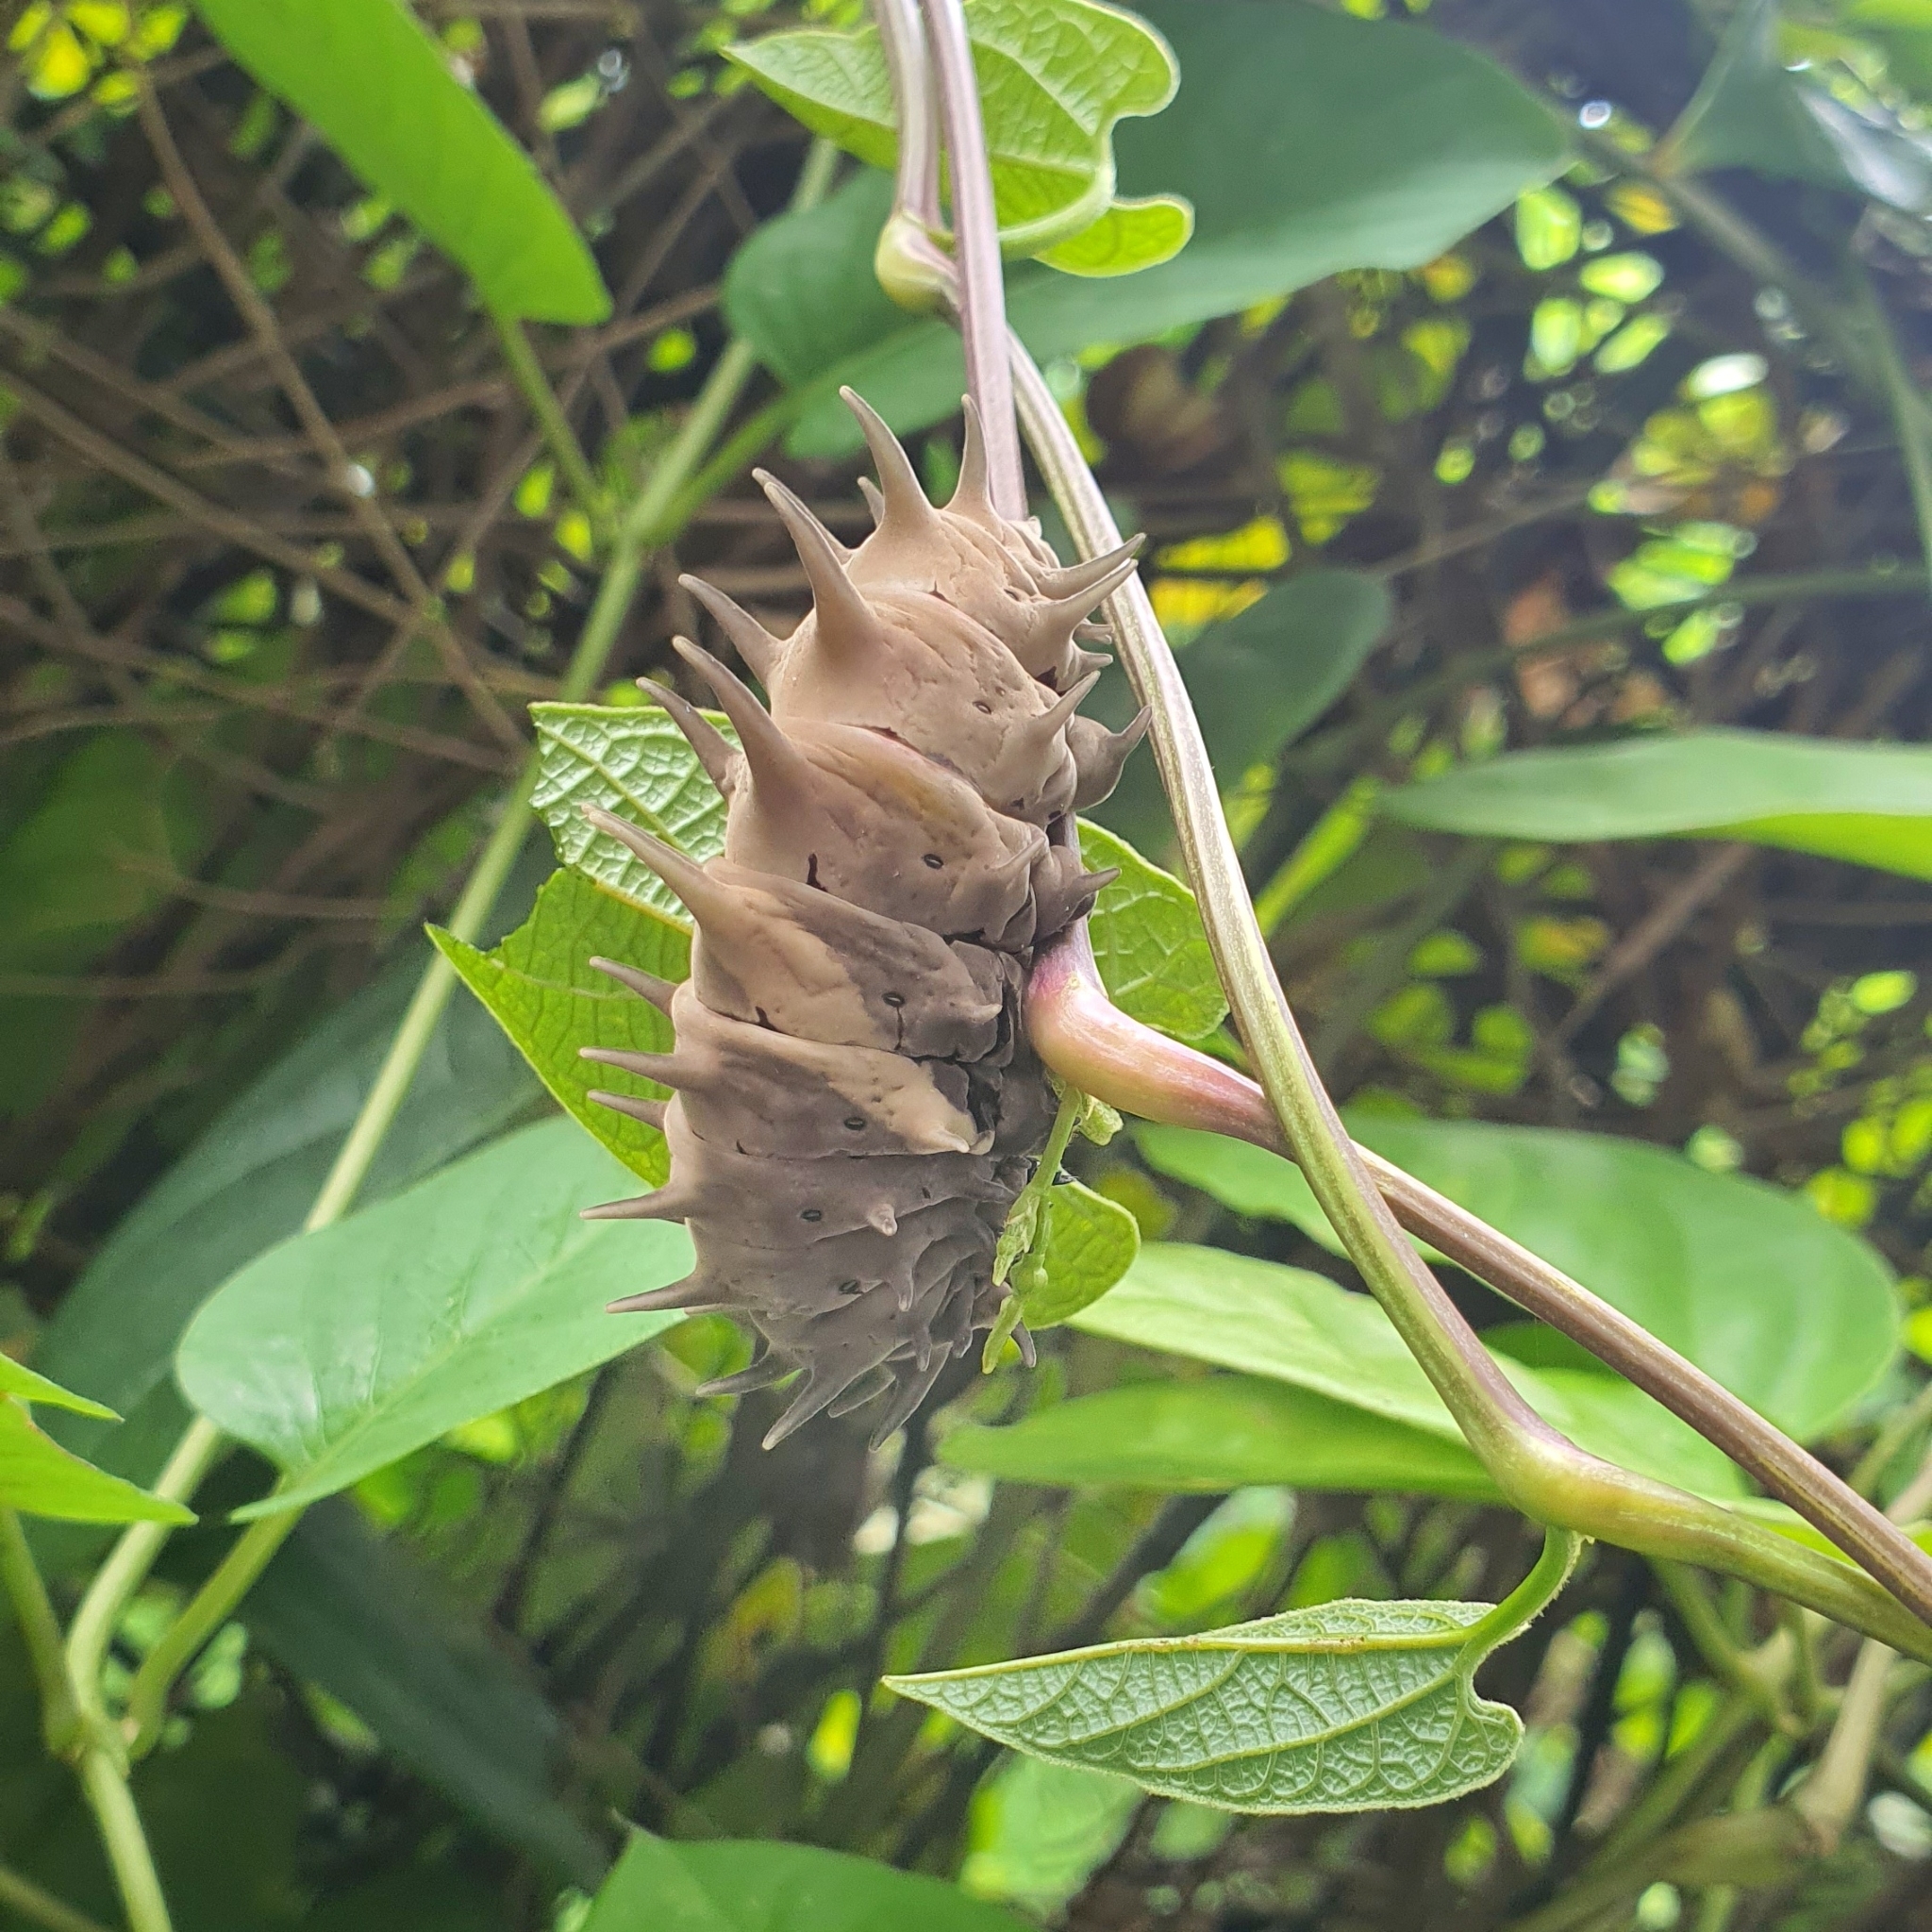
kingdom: Animalia
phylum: Arthropoda
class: Insecta
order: Lepidoptera
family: Papilionidae
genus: Troides
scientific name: Troides helena
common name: Common birdwing
